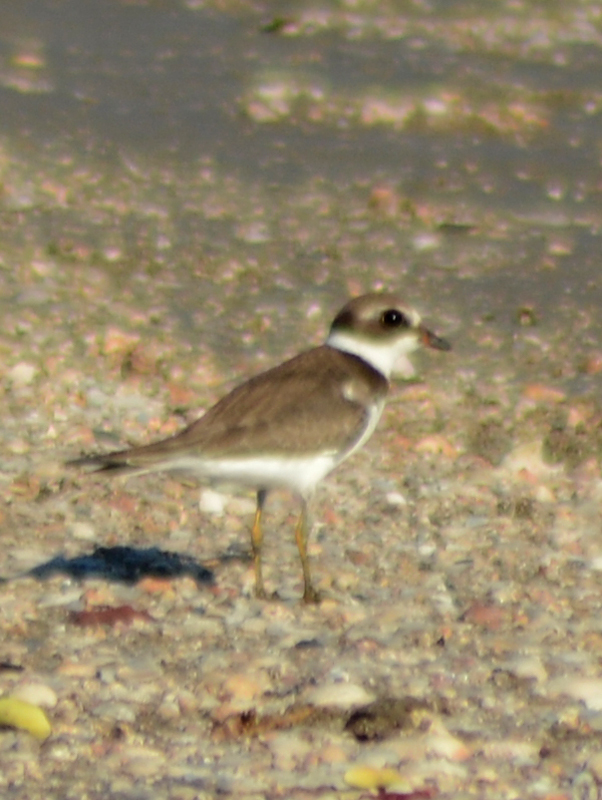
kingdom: Animalia
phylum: Chordata
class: Aves
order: Charadriiformes
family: Charadriidae
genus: Charadrius
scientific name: Charadrius semipalmatus
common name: Semipalmated plover
